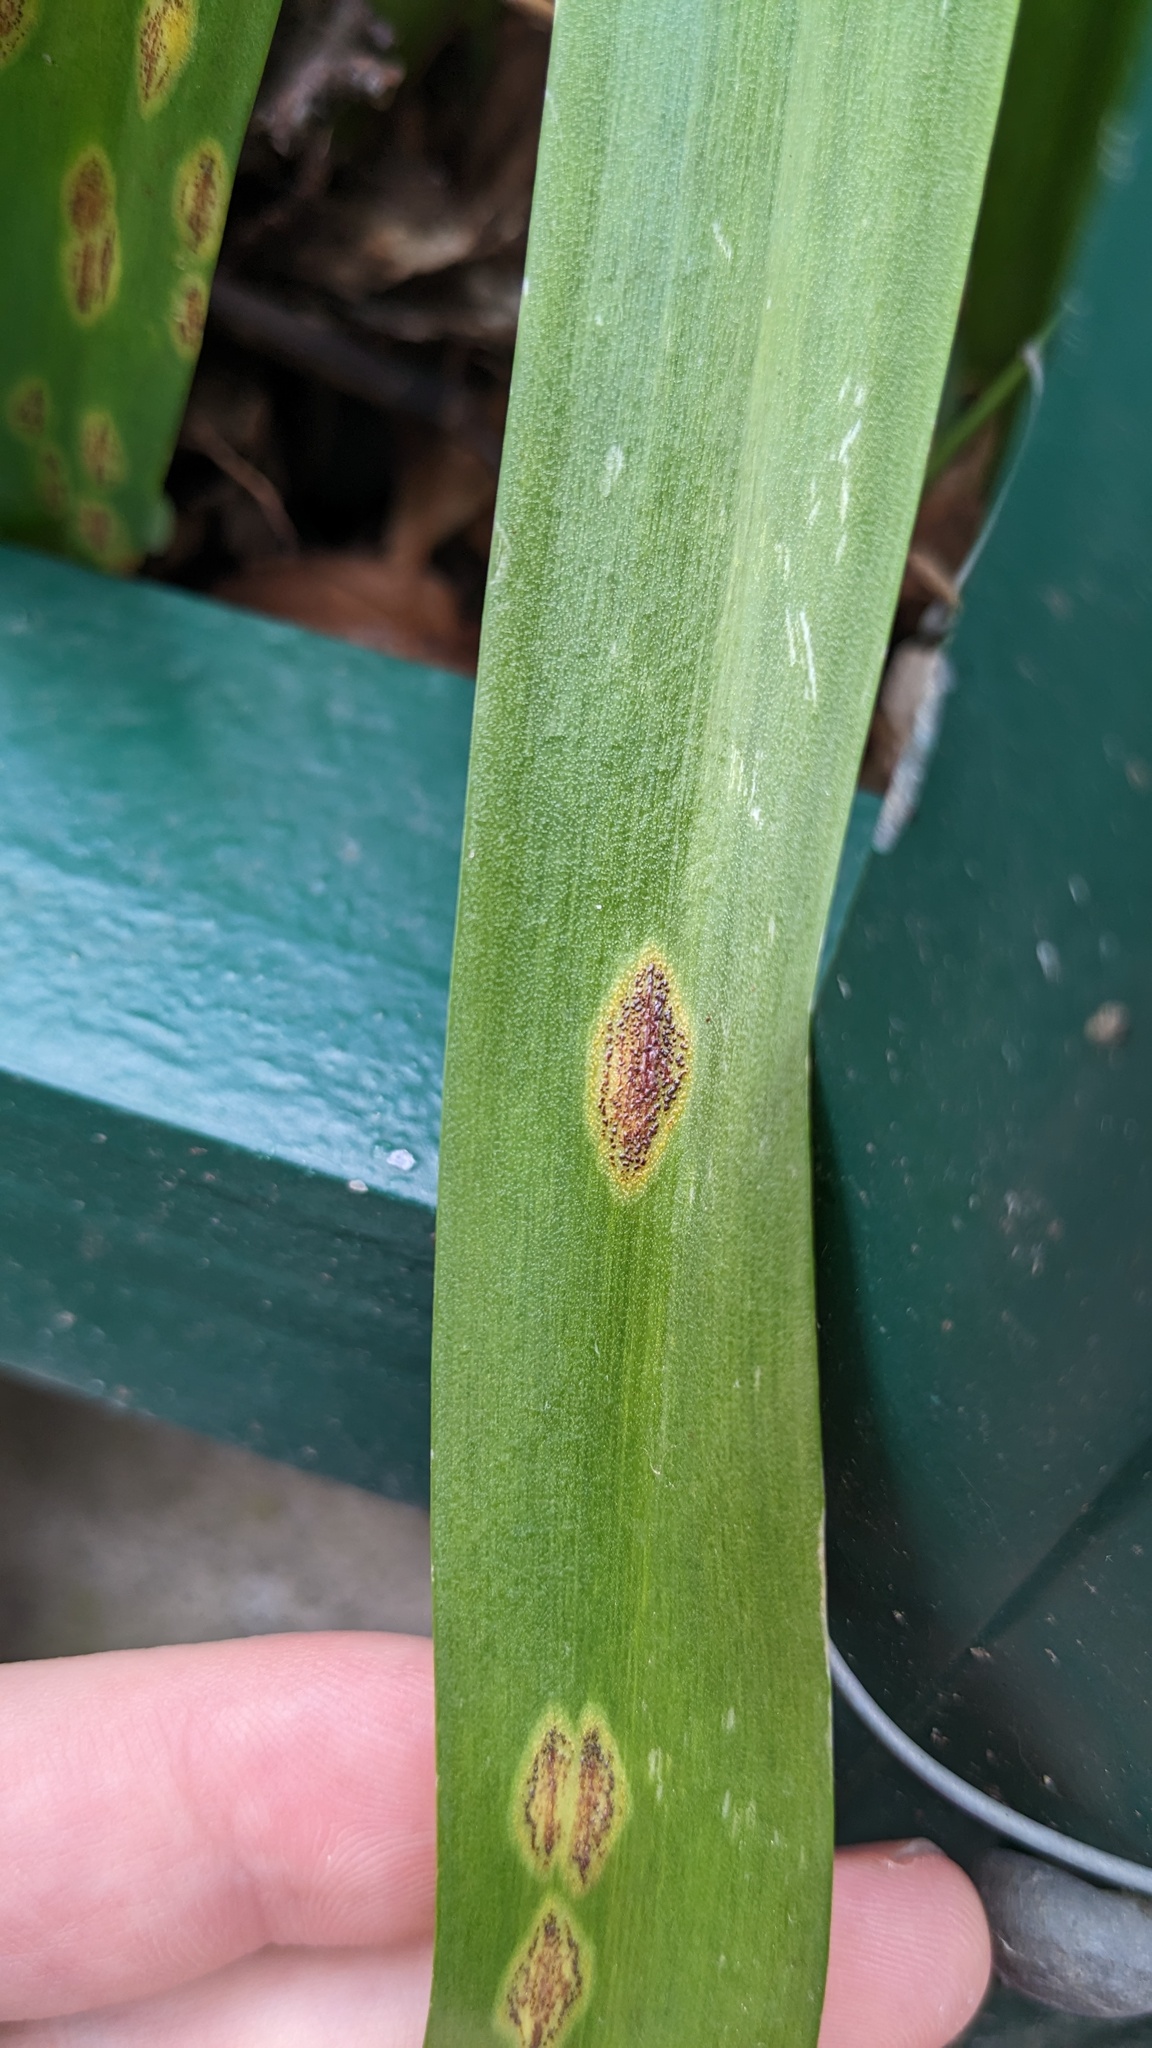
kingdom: Fungi
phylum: Basidiomycota
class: Pucciniomycetes
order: Pucciniales
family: Pucciniaceae
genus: Uromyces
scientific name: Uromyces hyacinthi
